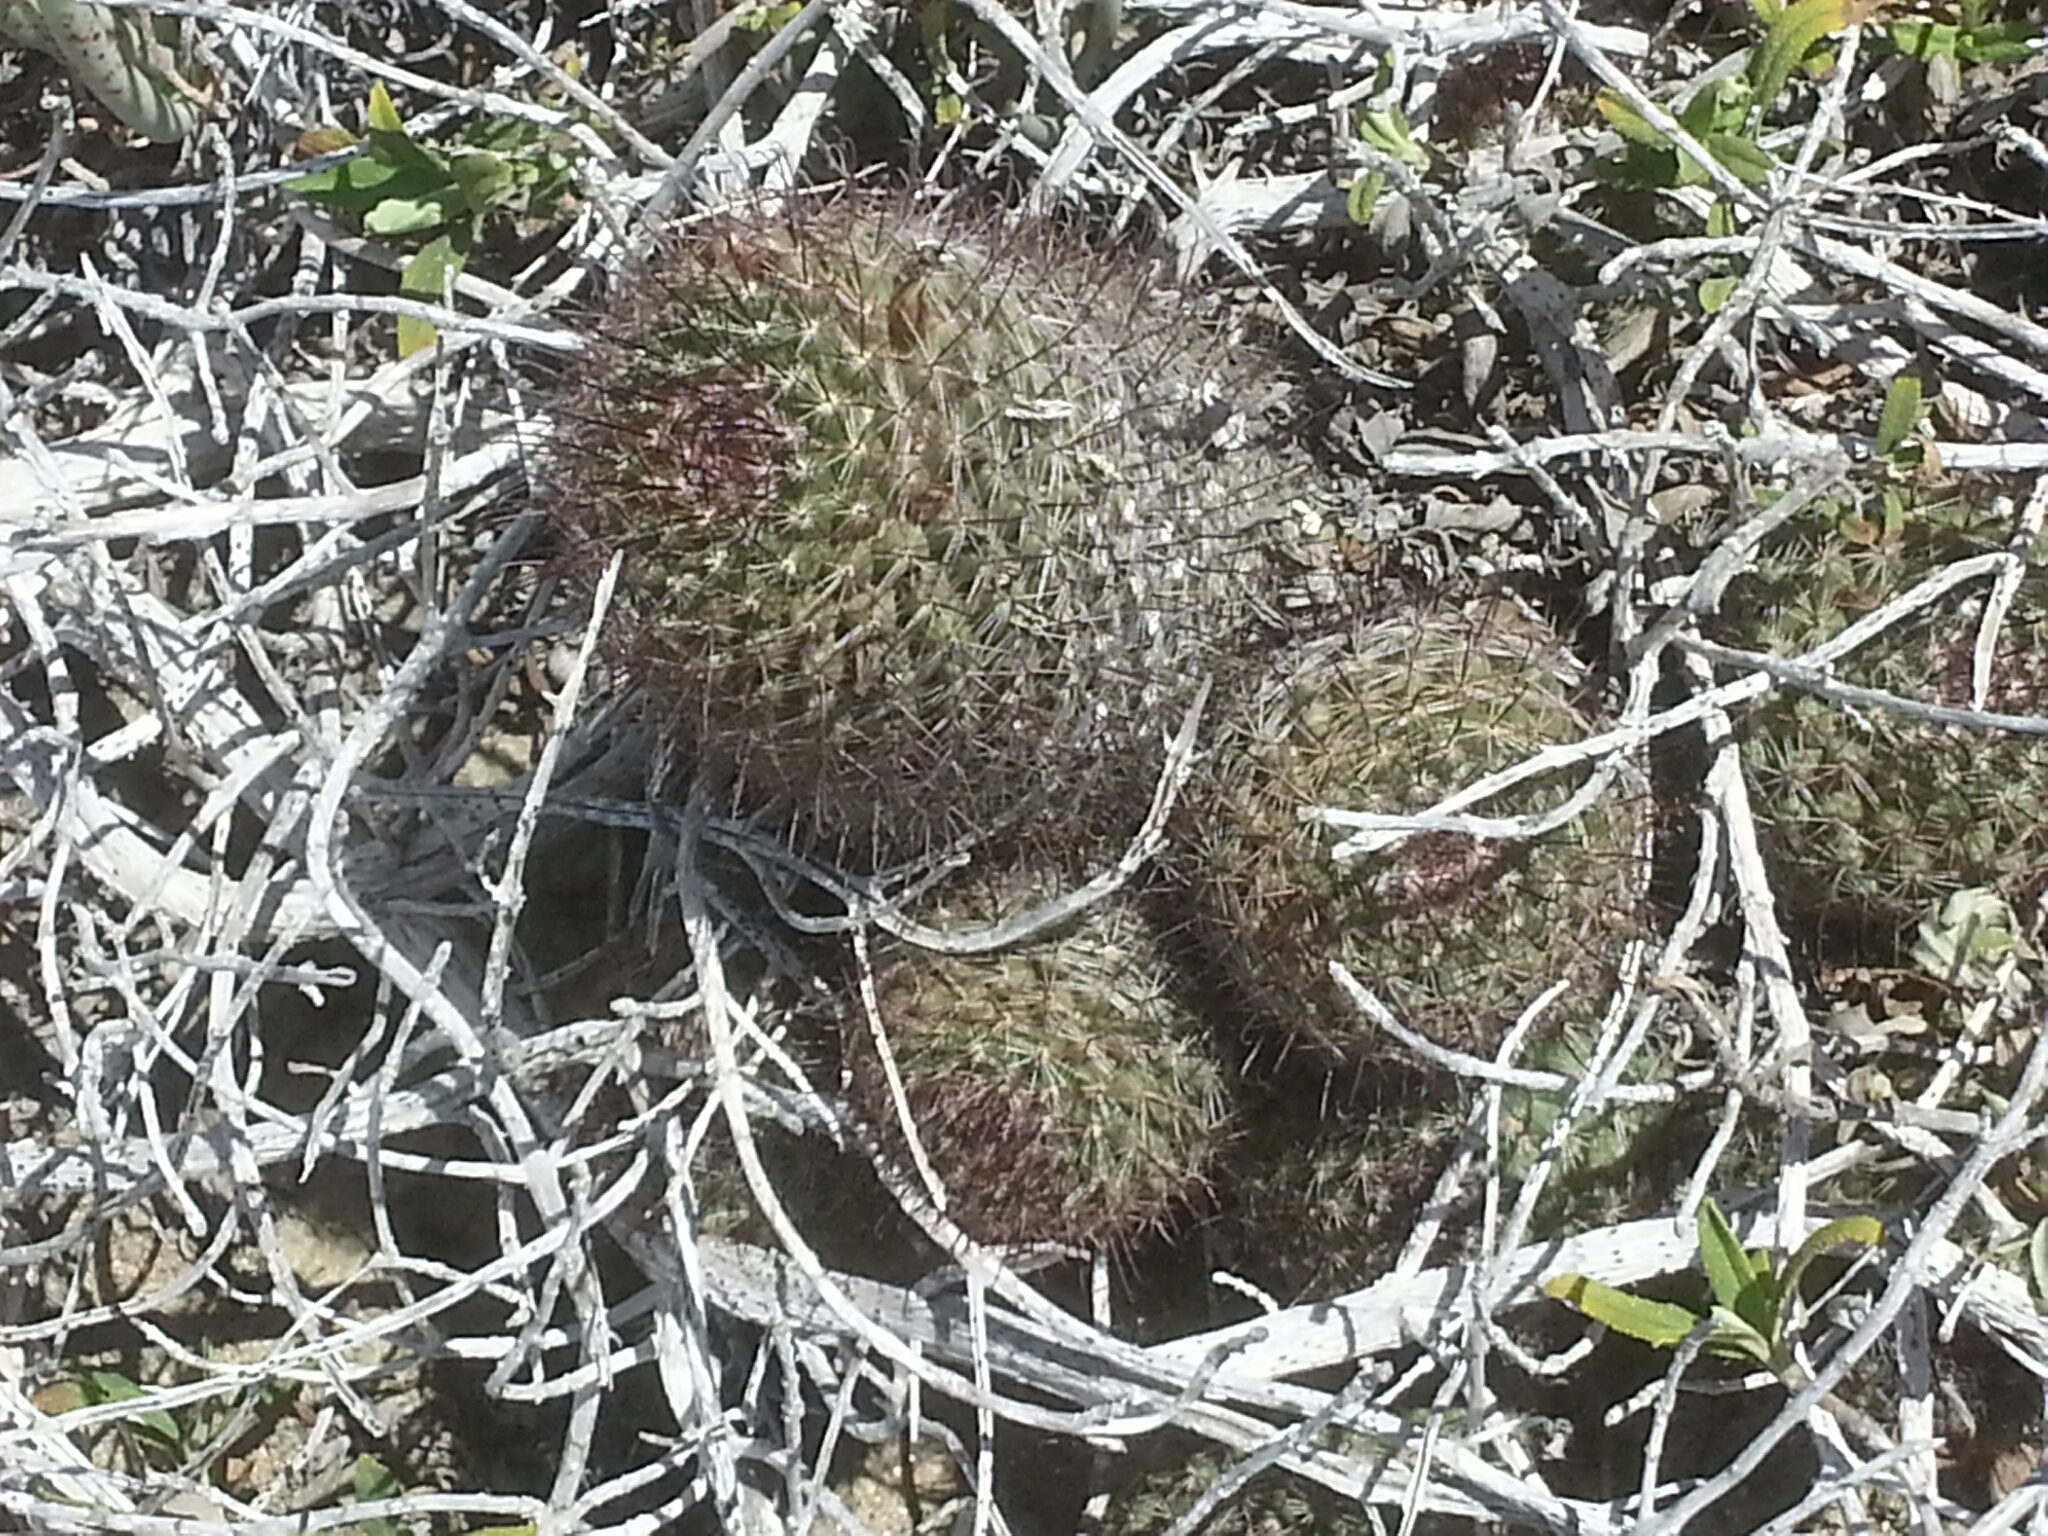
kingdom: Plantae
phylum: Tracheophyta
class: Magnoliopsida
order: Caryophyllales
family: Cactaceae
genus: Cochemiea
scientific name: Cochemiea dioica
